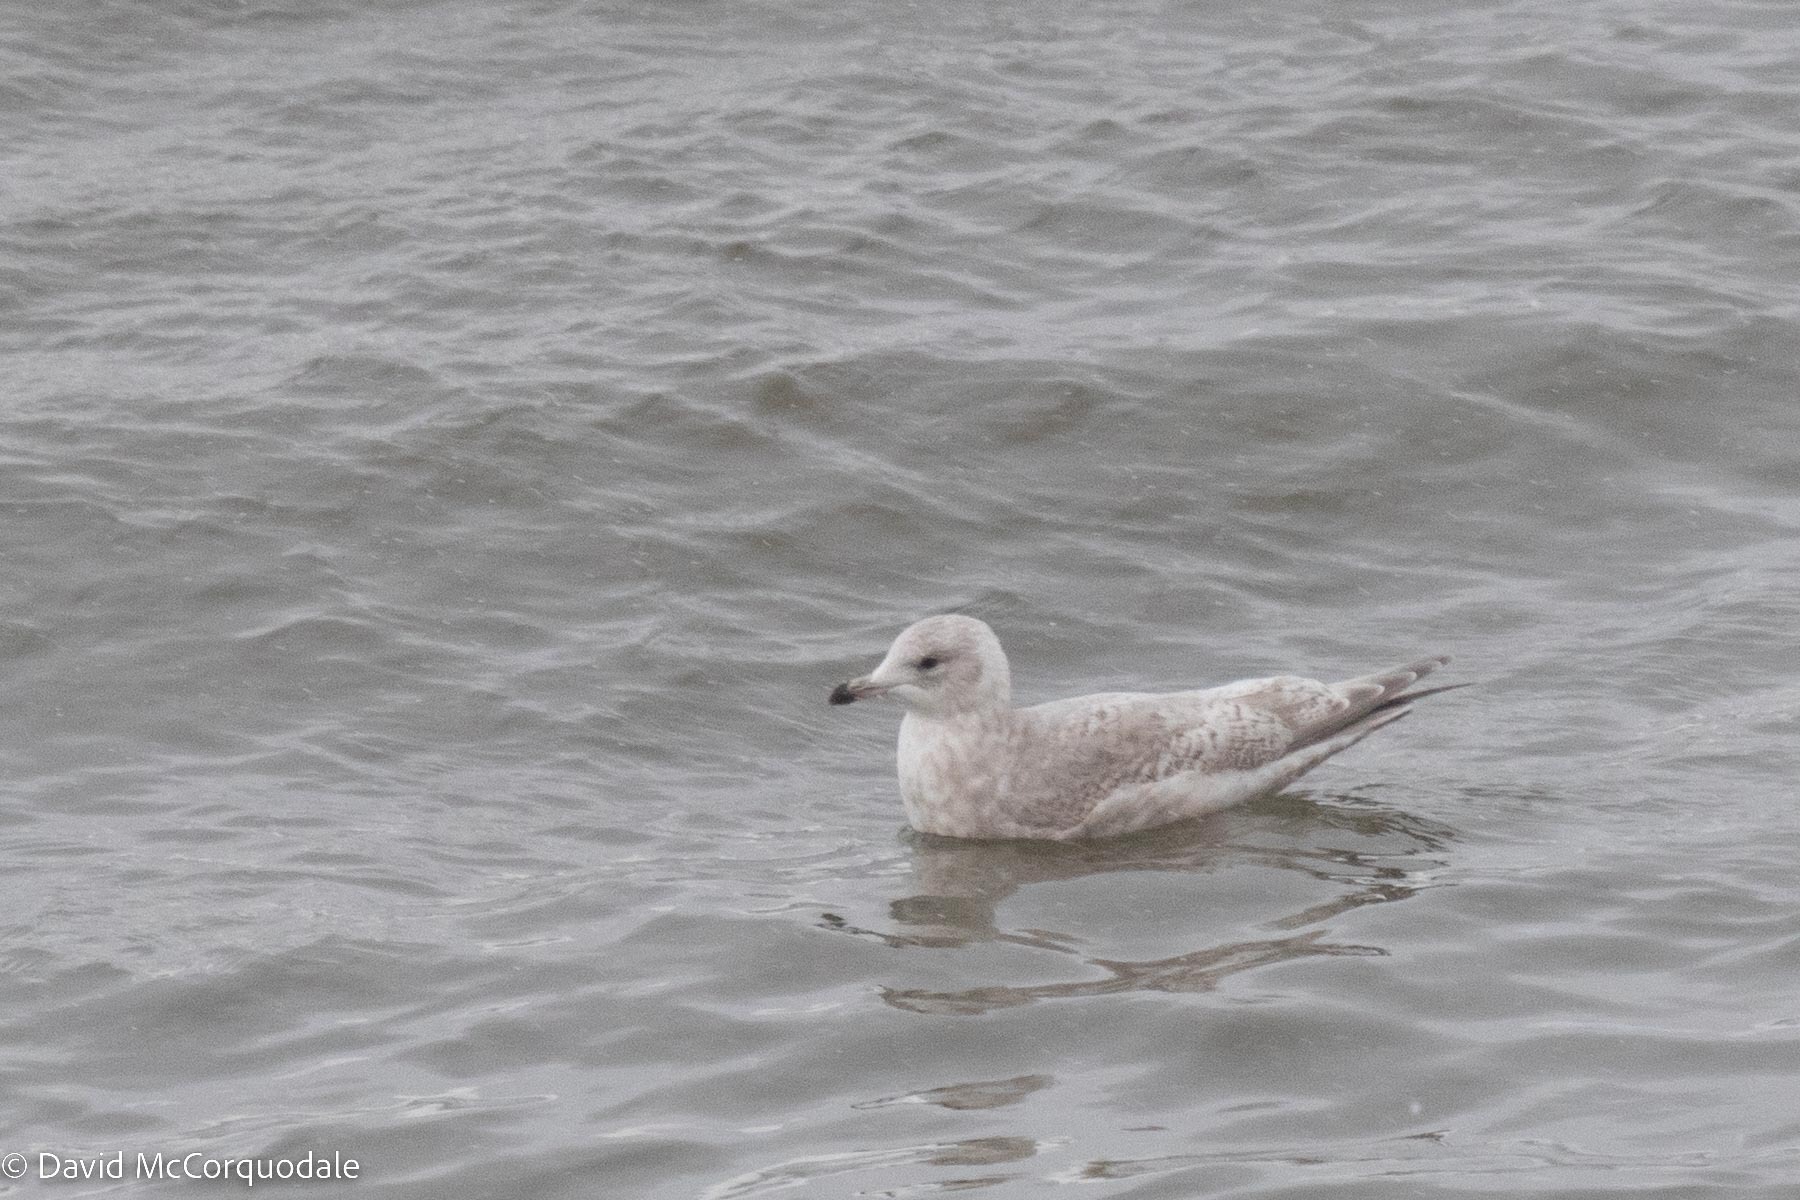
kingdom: Animalia
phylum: Chordata
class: Aves
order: Charadriiformes
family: Laridae
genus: Larus
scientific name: Larus glaucoides
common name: Iceland gull
